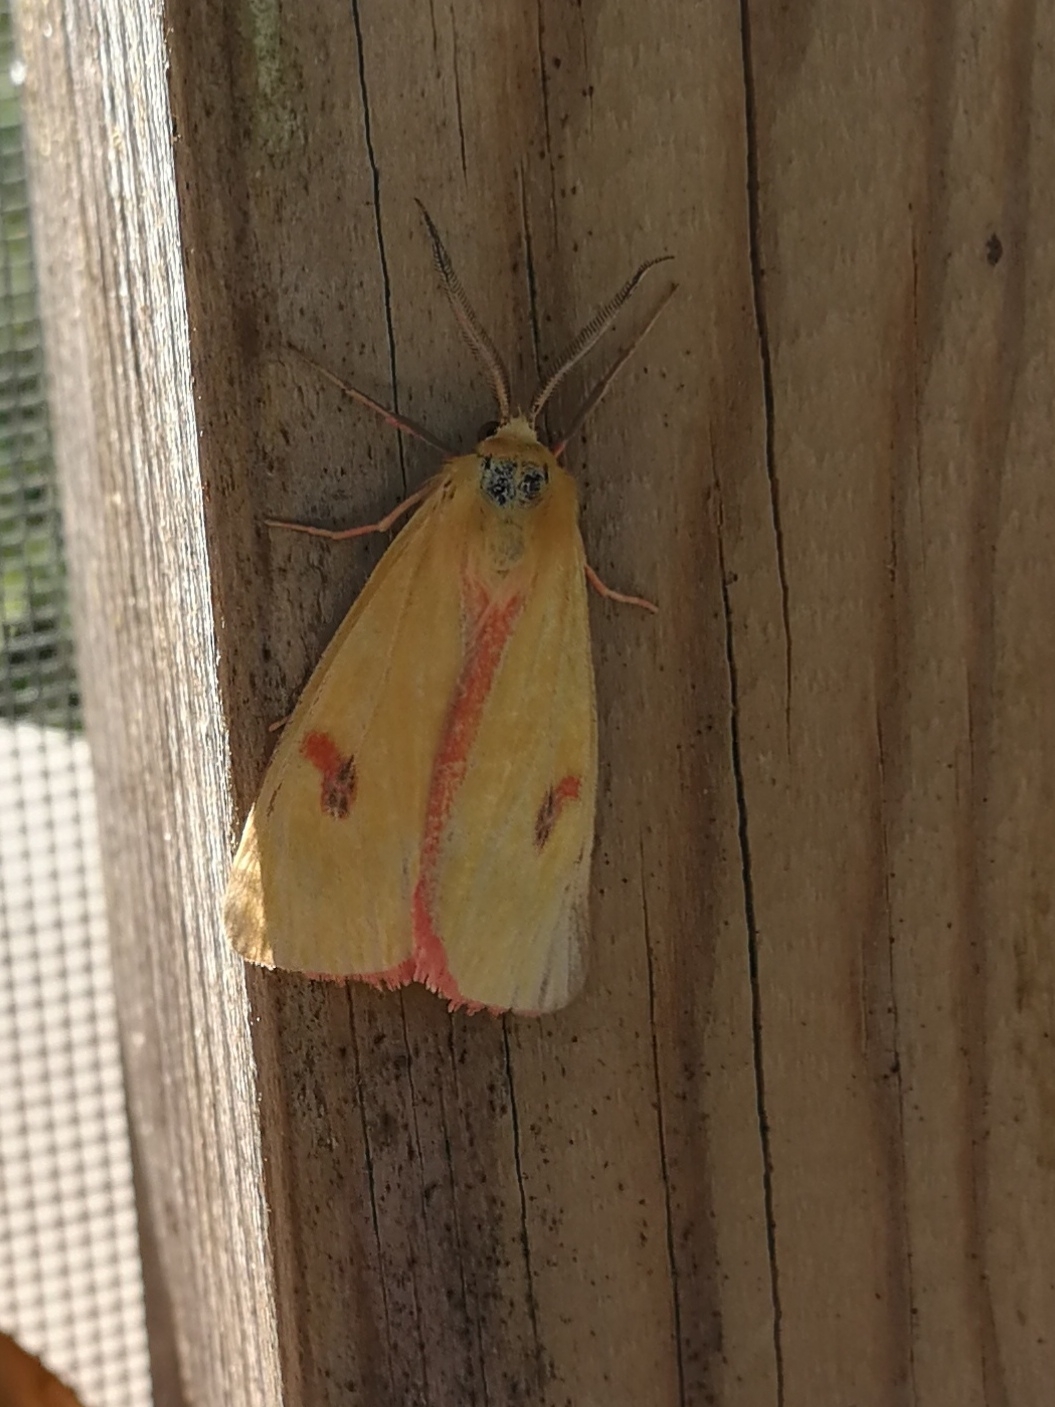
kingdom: Animalia
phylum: Arthropoda
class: Insecta
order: Lepidoptera
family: Erebidae
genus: Diacrisia
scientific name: Diacrisia sannio
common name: Clouded buff
